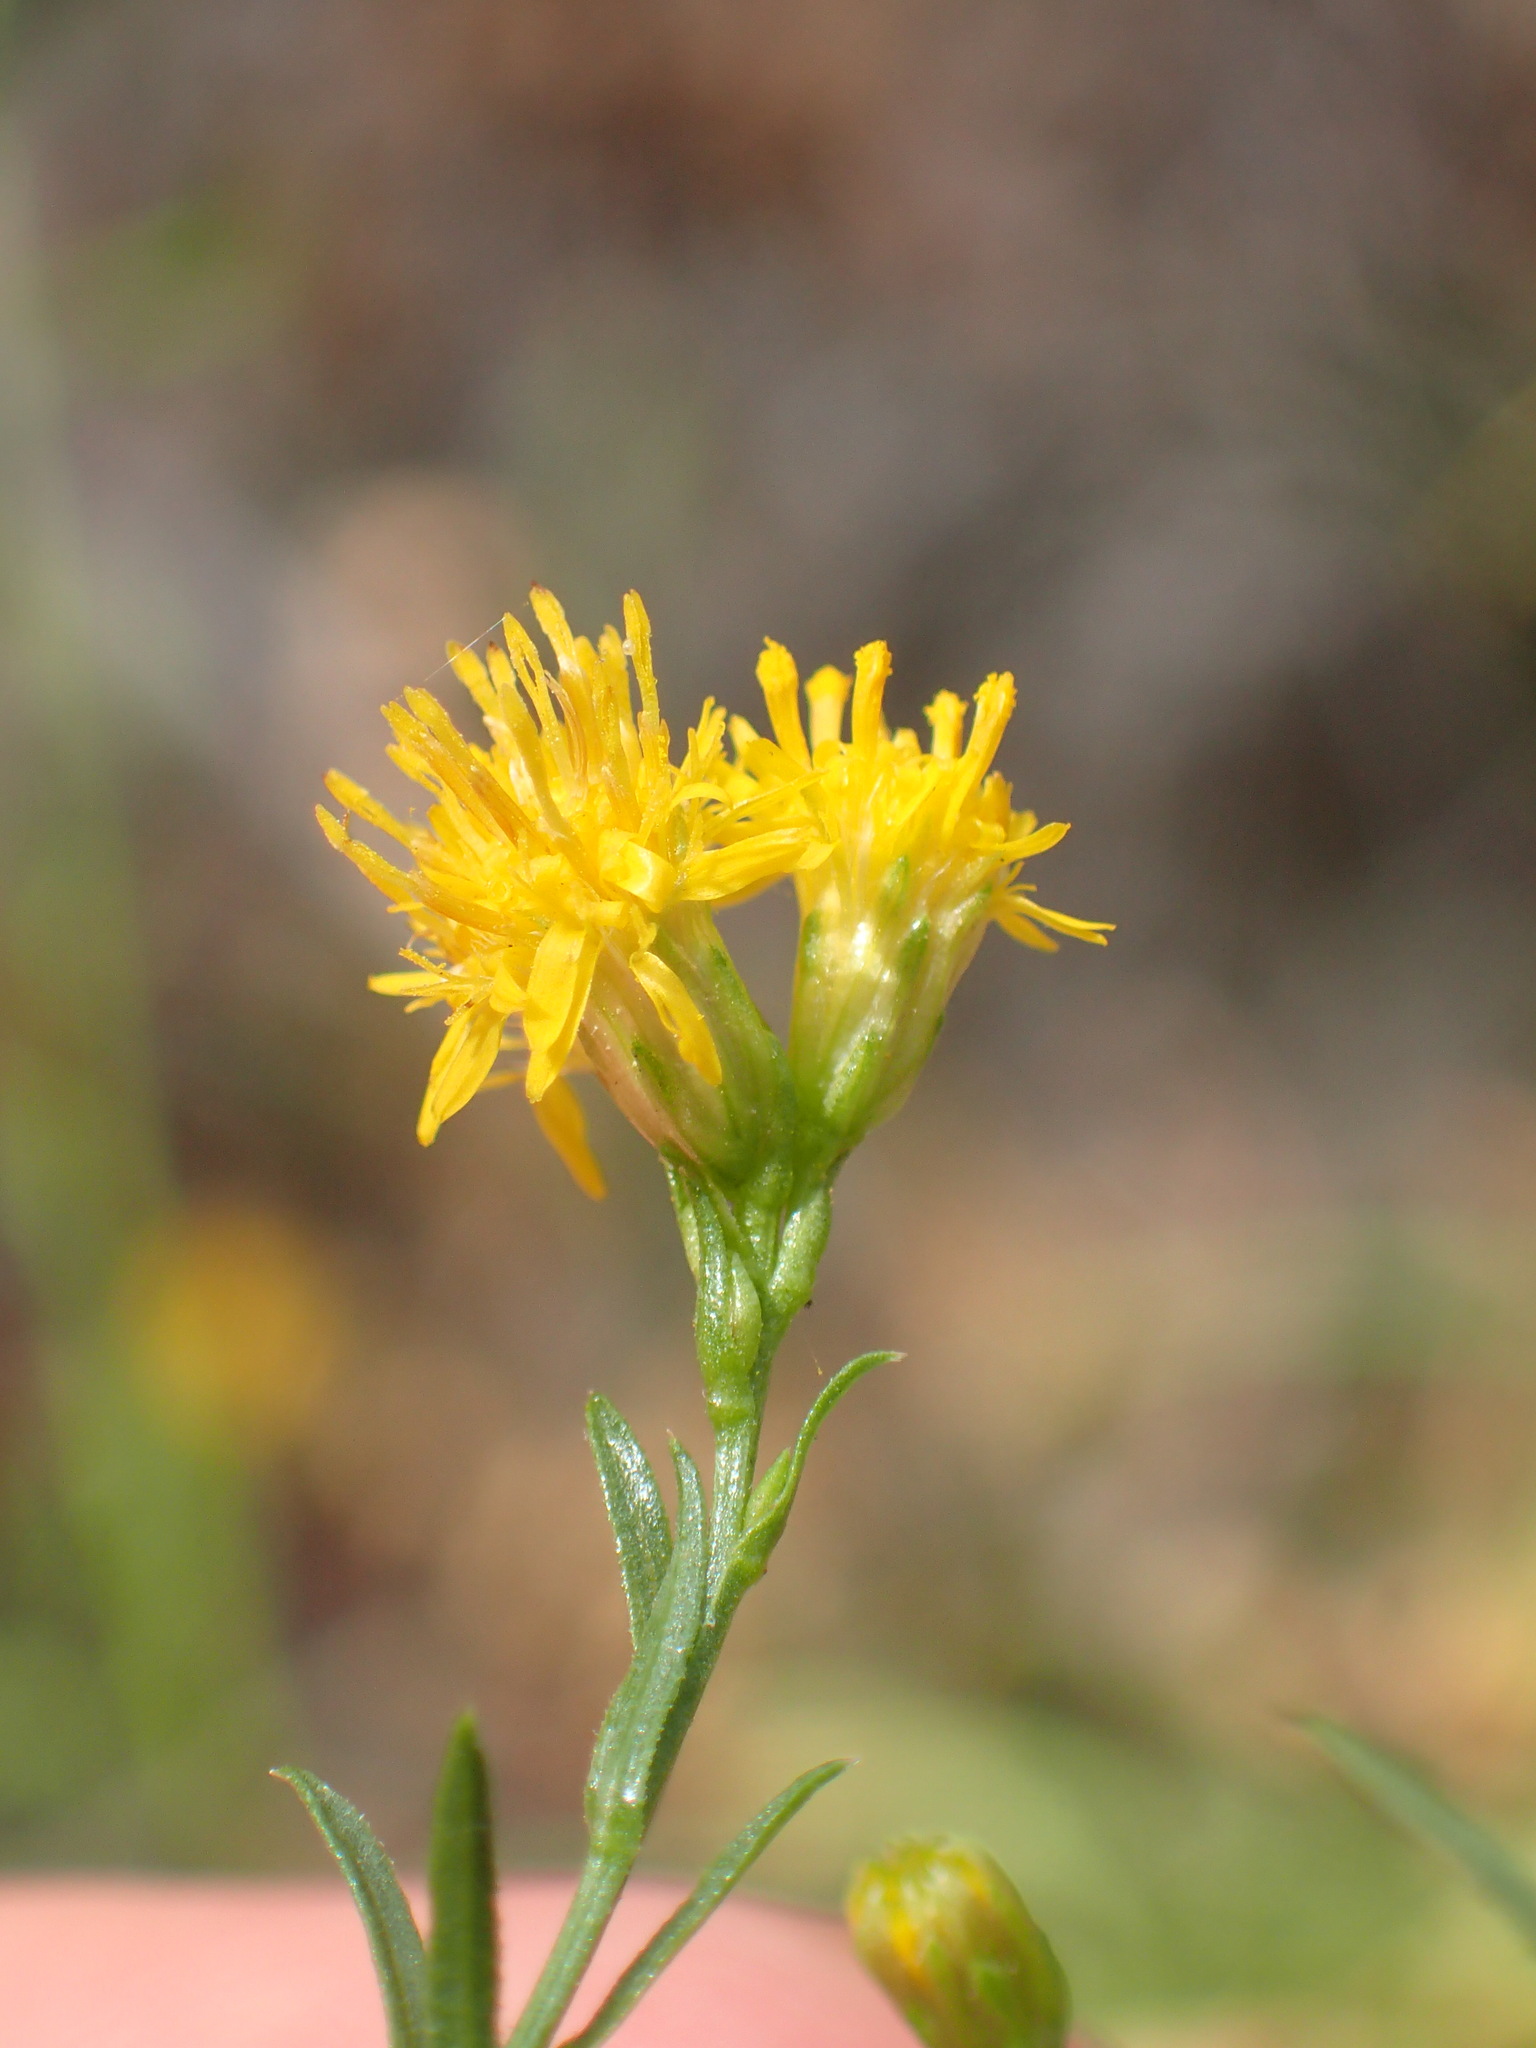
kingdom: Plantae
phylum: Tracheophyta
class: Magnoliopsida
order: Asterales
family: Asteraceae
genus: Euthamia
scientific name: Euthamia occidentalis
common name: Western goldentop
